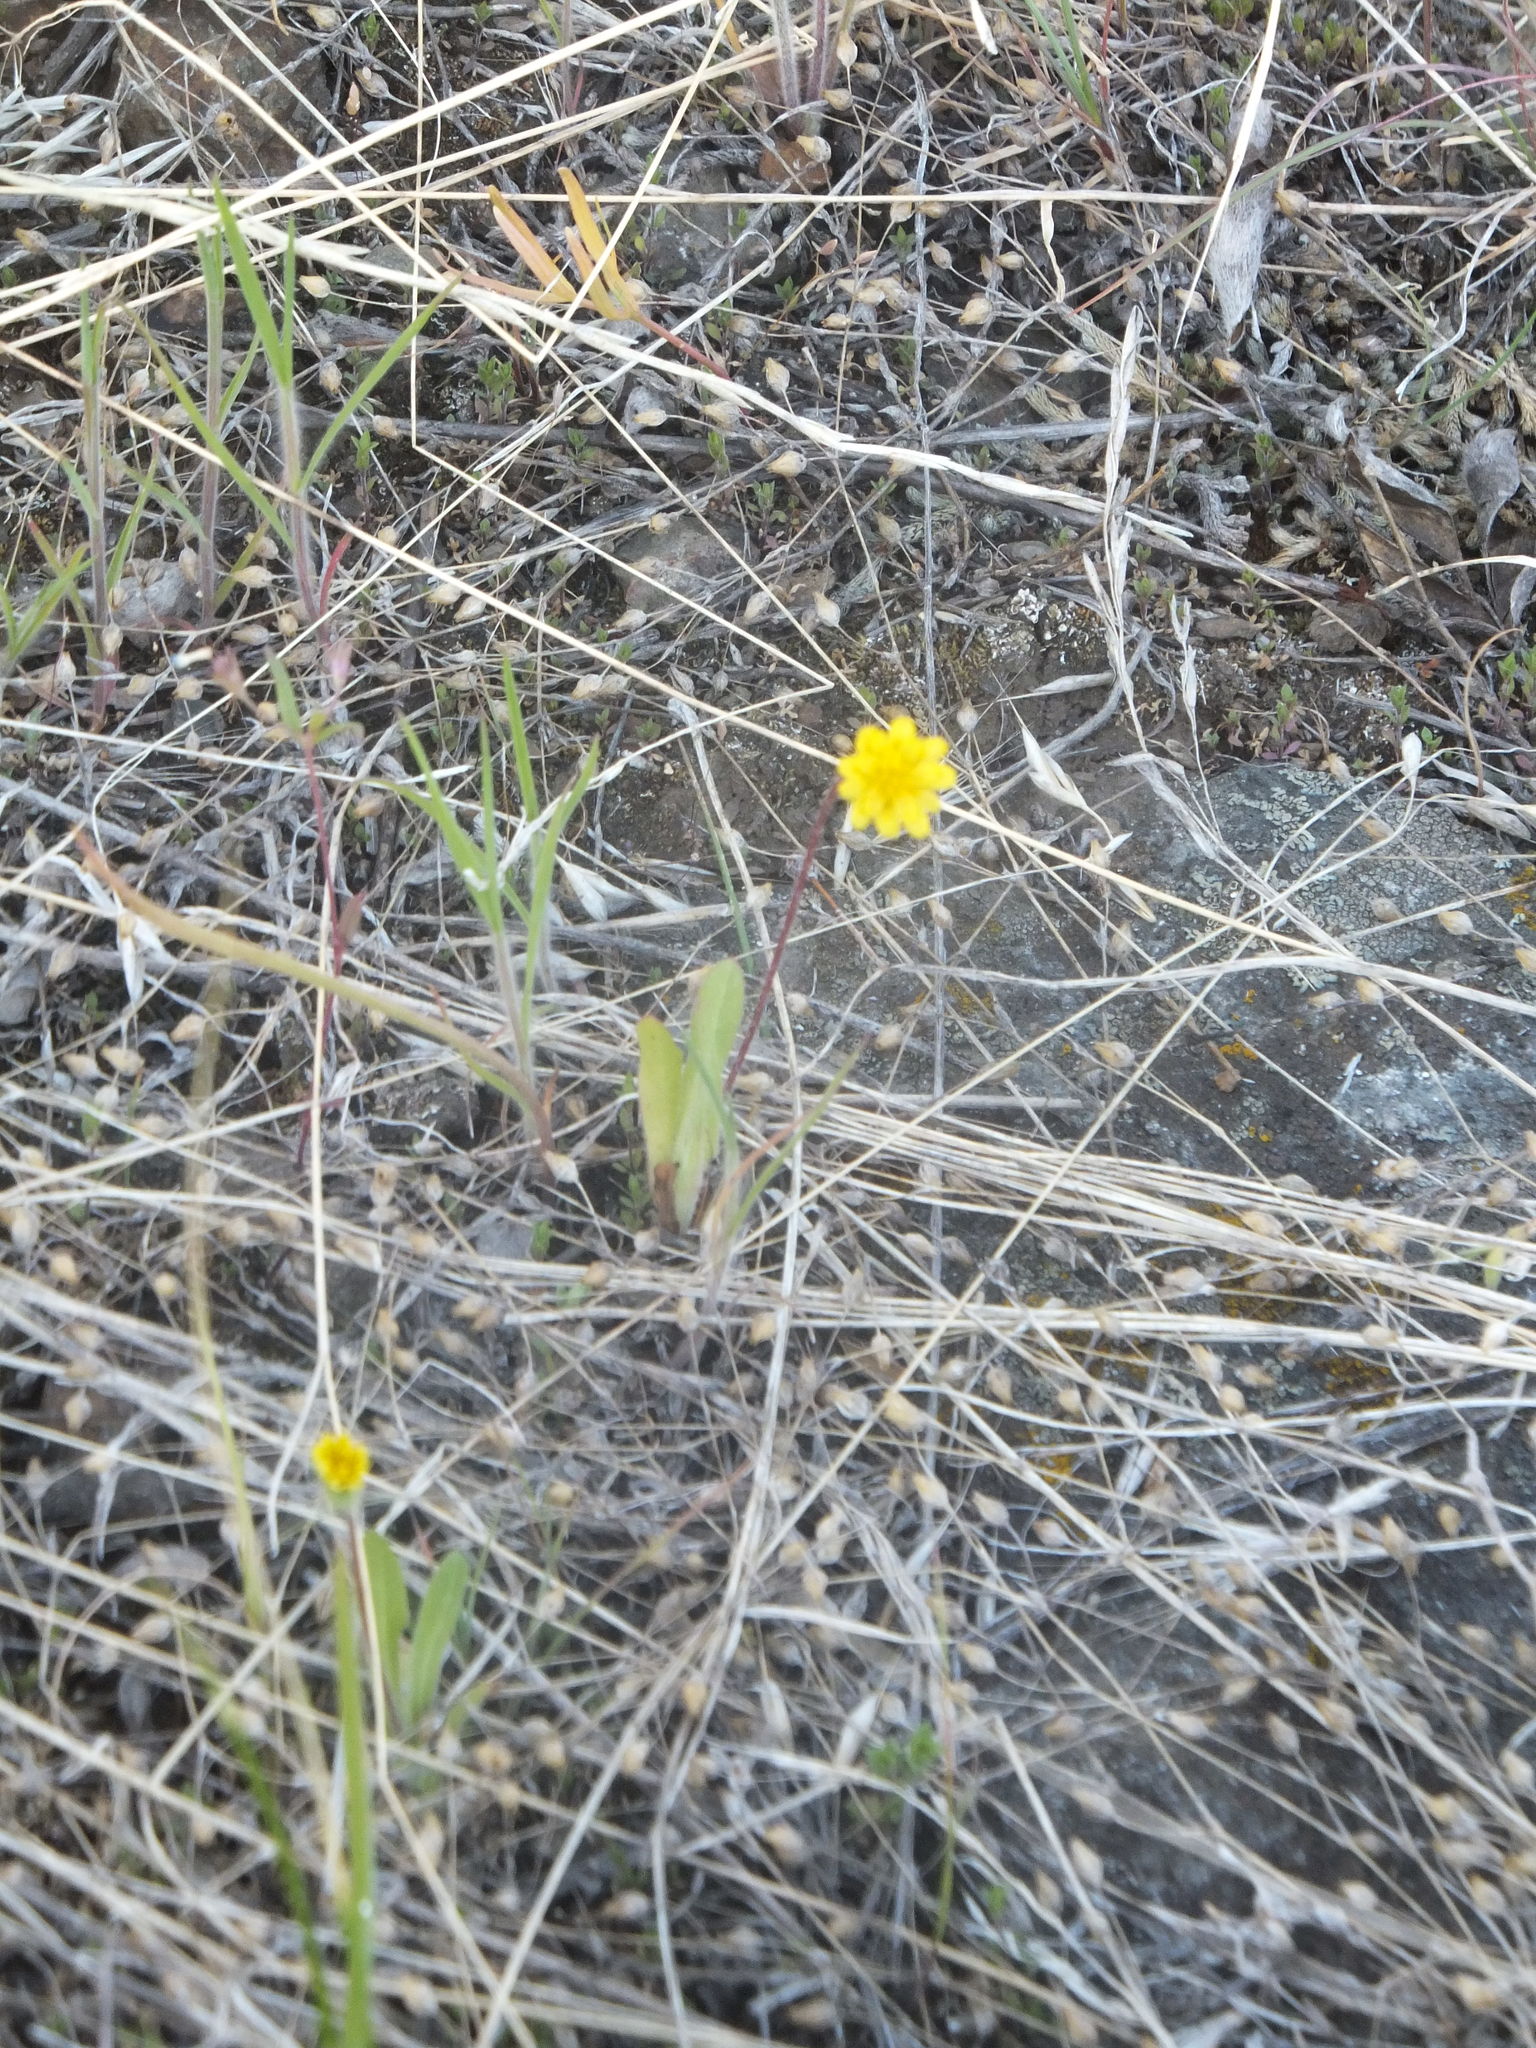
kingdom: Plantae
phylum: Tracheophyta
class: Magnoliopsida
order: Asterales
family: Asteraceae
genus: Agoseris
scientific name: Agoseris heterophylla
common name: Annual agoseris
